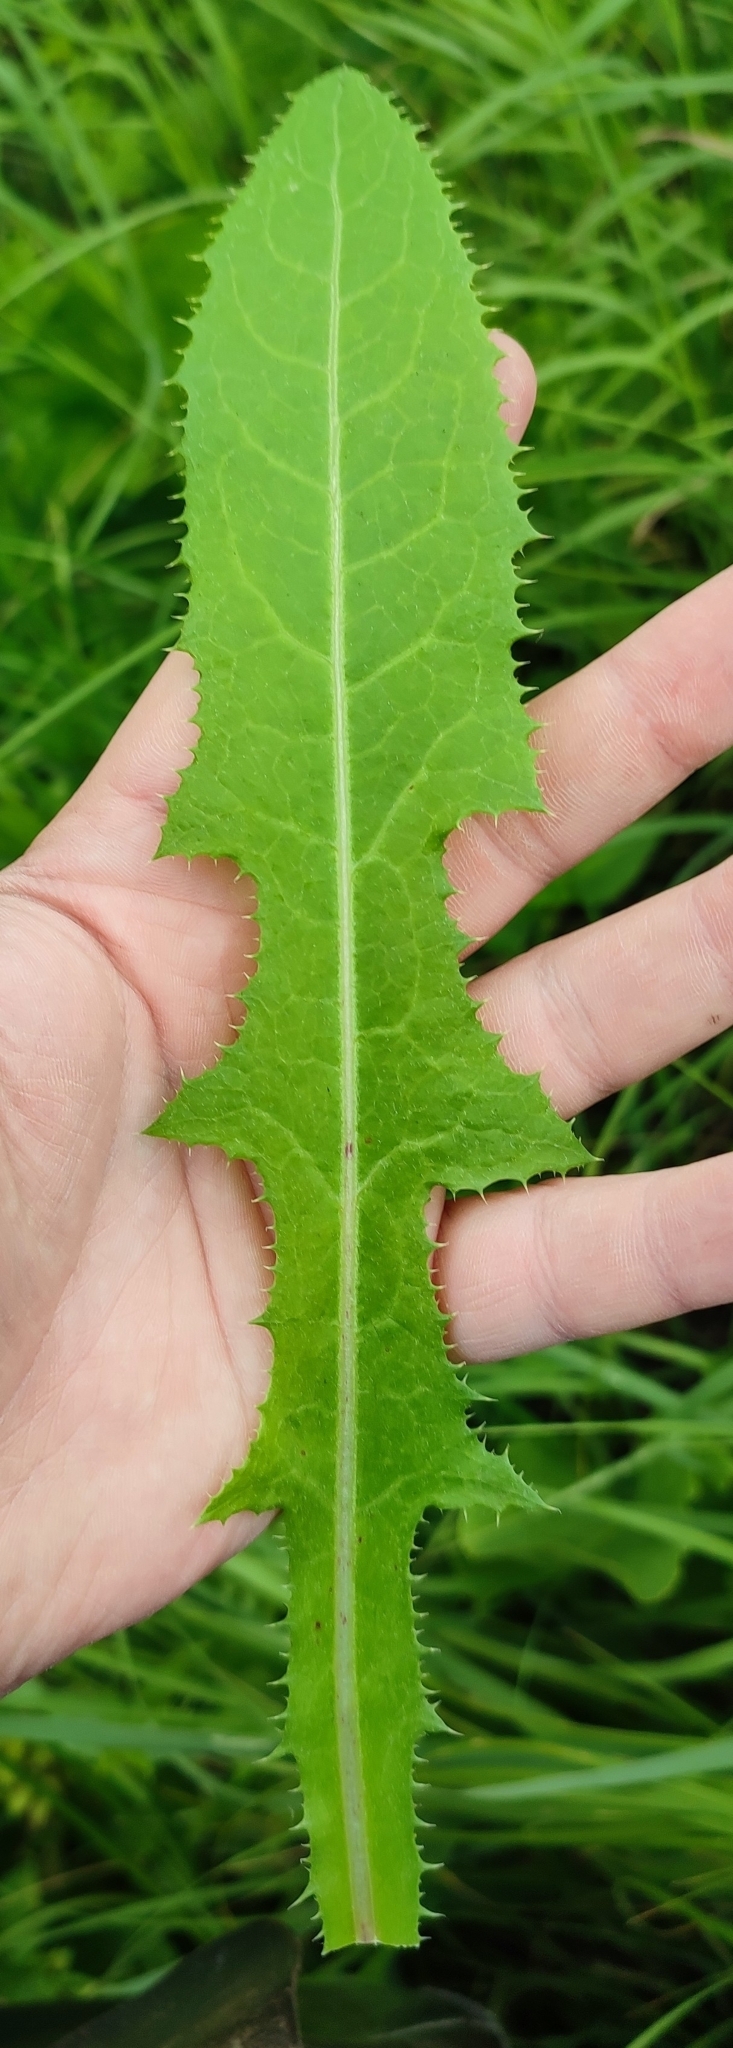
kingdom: Plantae
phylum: Tracheophyta
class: Magnoliopsida
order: Asterales
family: Asteraceae
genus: Sonchus
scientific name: Sonchus arvensis
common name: Perennial sow-thistle
